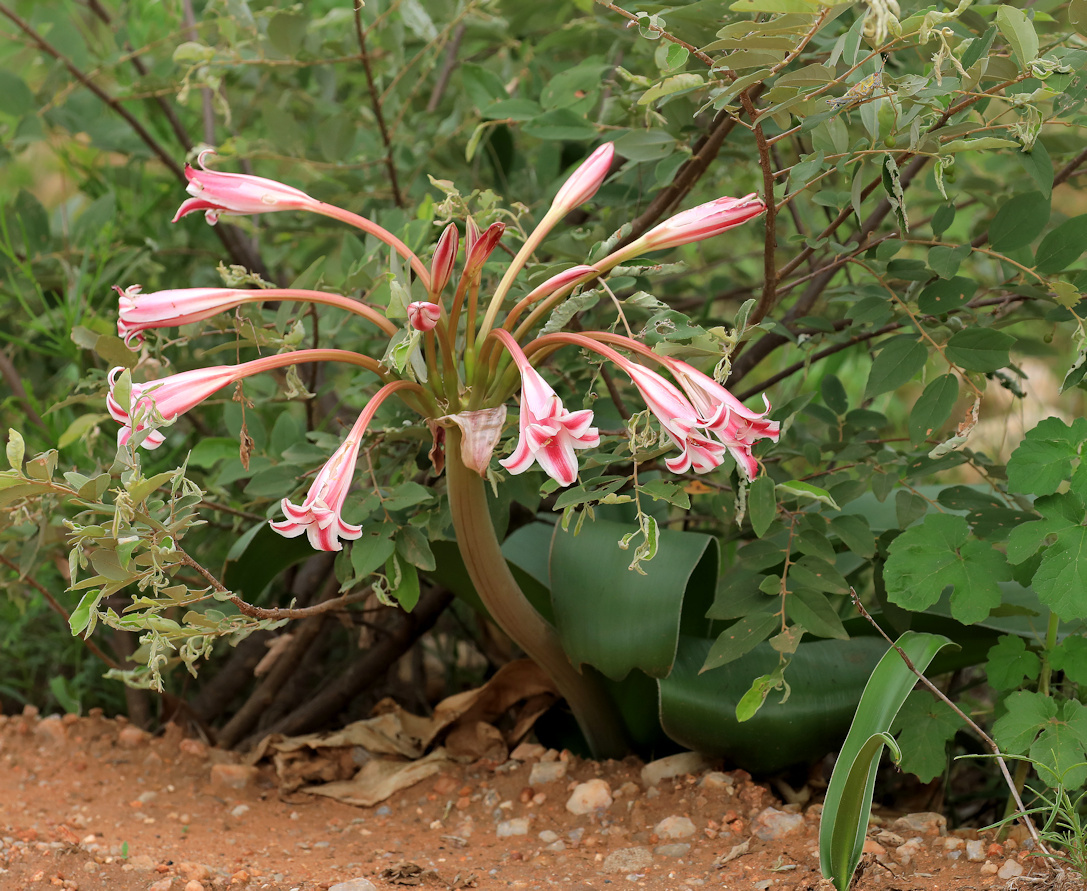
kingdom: Plantae
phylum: Tracheophyta
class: Liliopsida
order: Asparagales
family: Amaryllidaceae
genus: Crinum
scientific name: Crinum stuhlmannii
